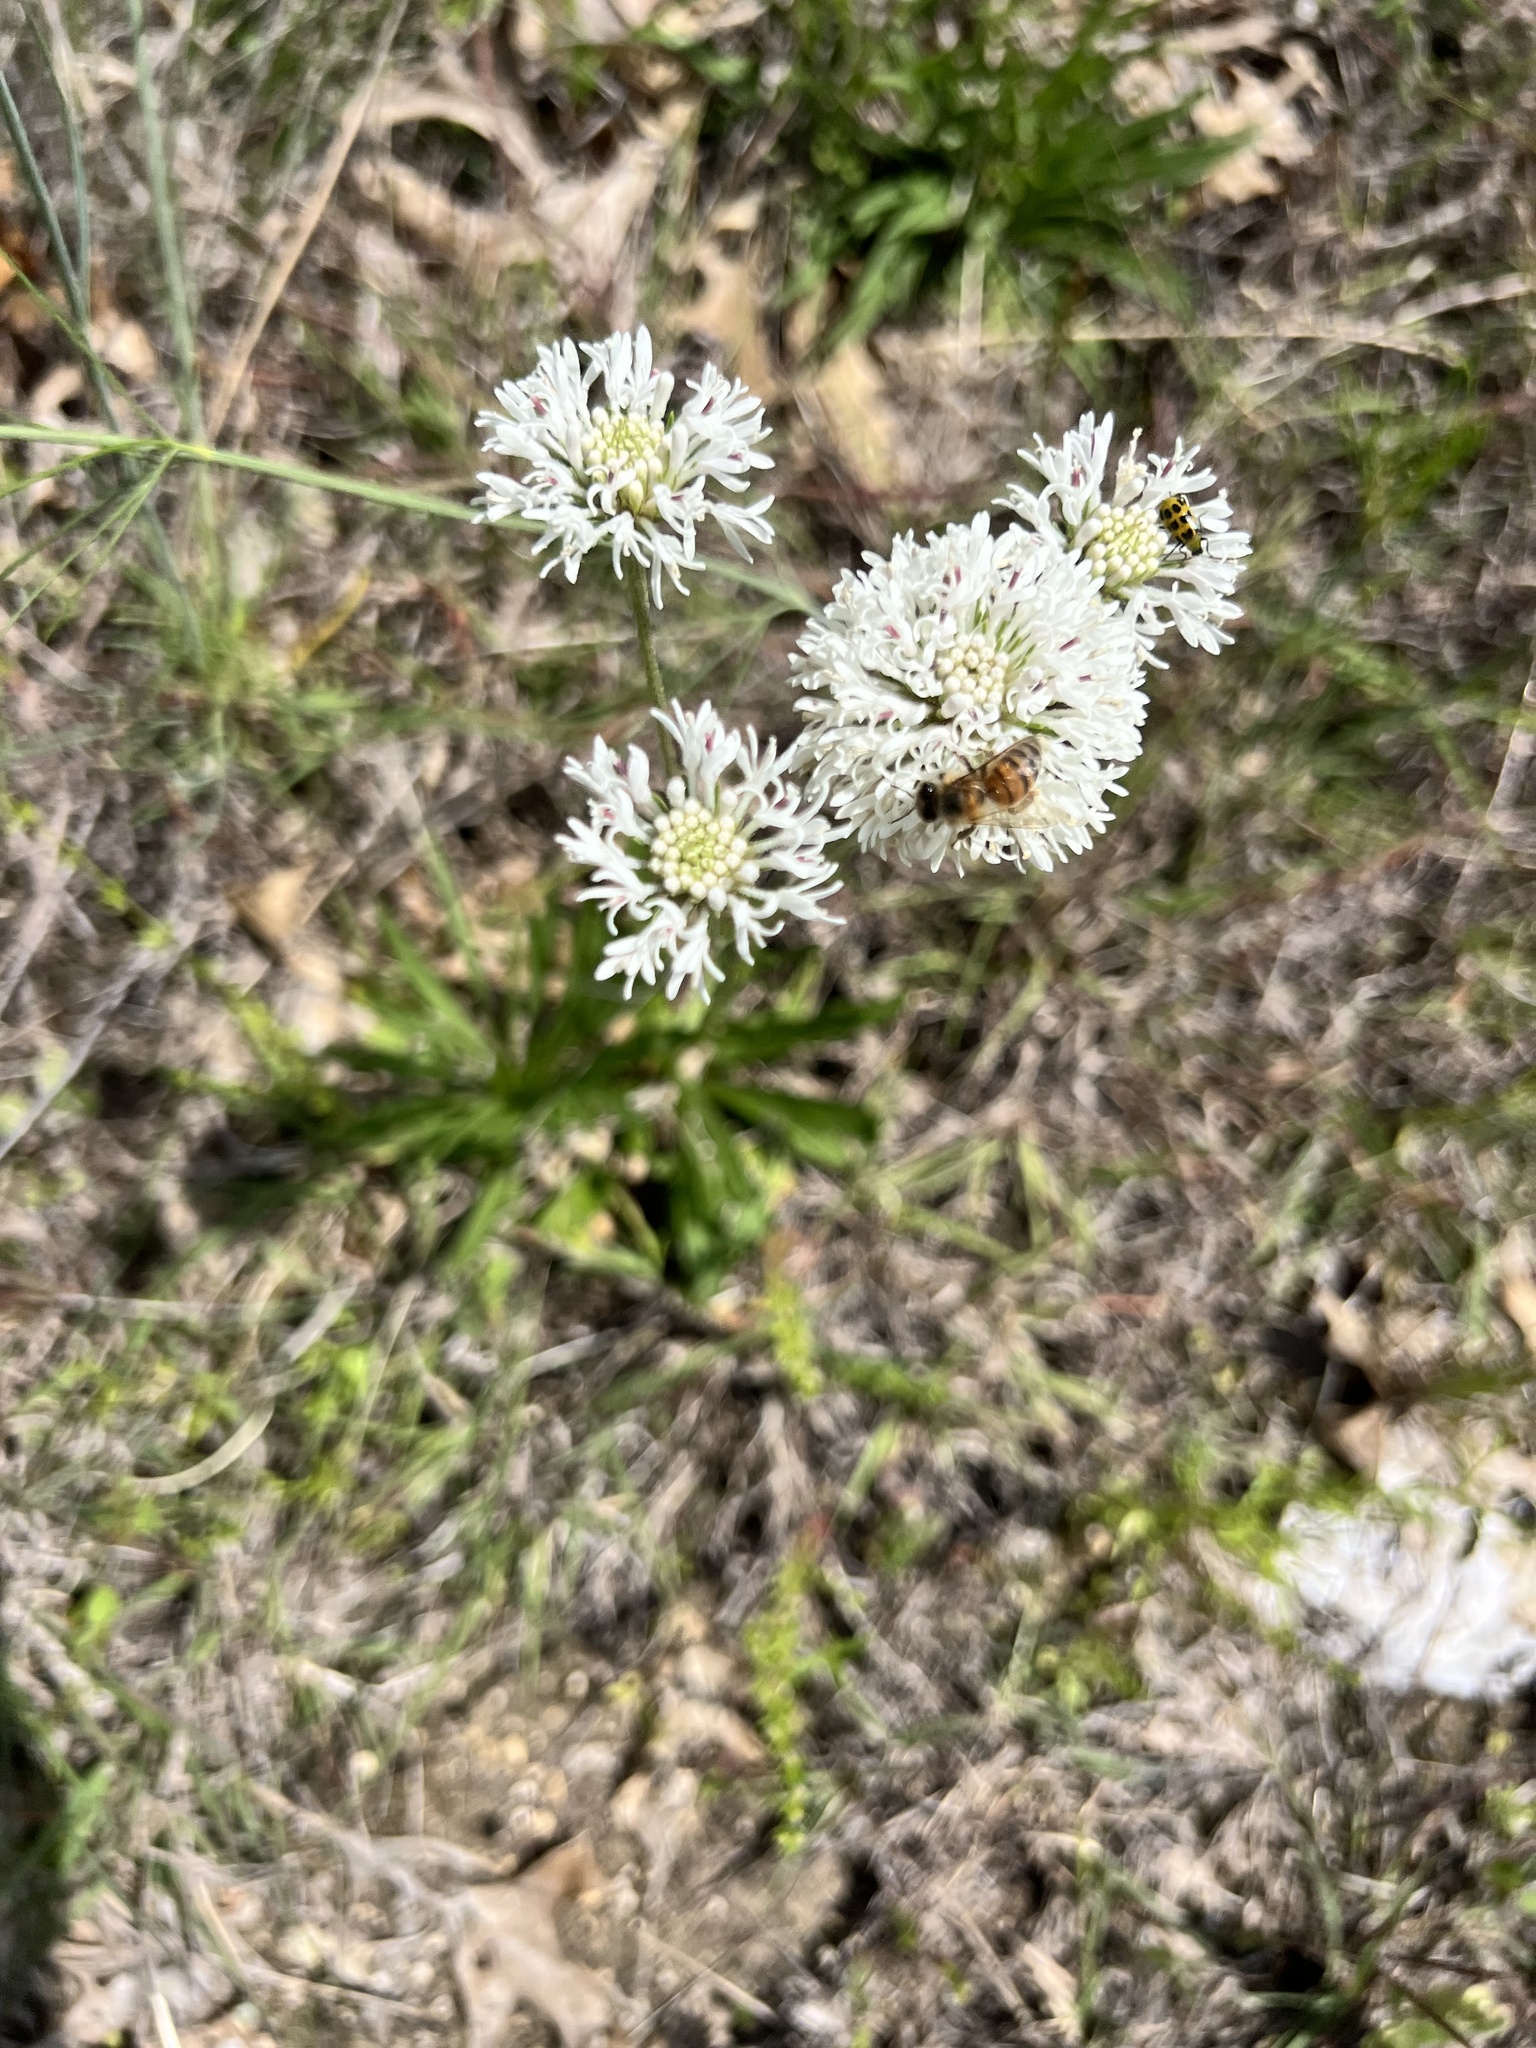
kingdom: Plantae
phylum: Tracheophyta
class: Magnoliopsida
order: Asterales
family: Asteraceae
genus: Marshallia
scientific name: Marshallia caespitosa
